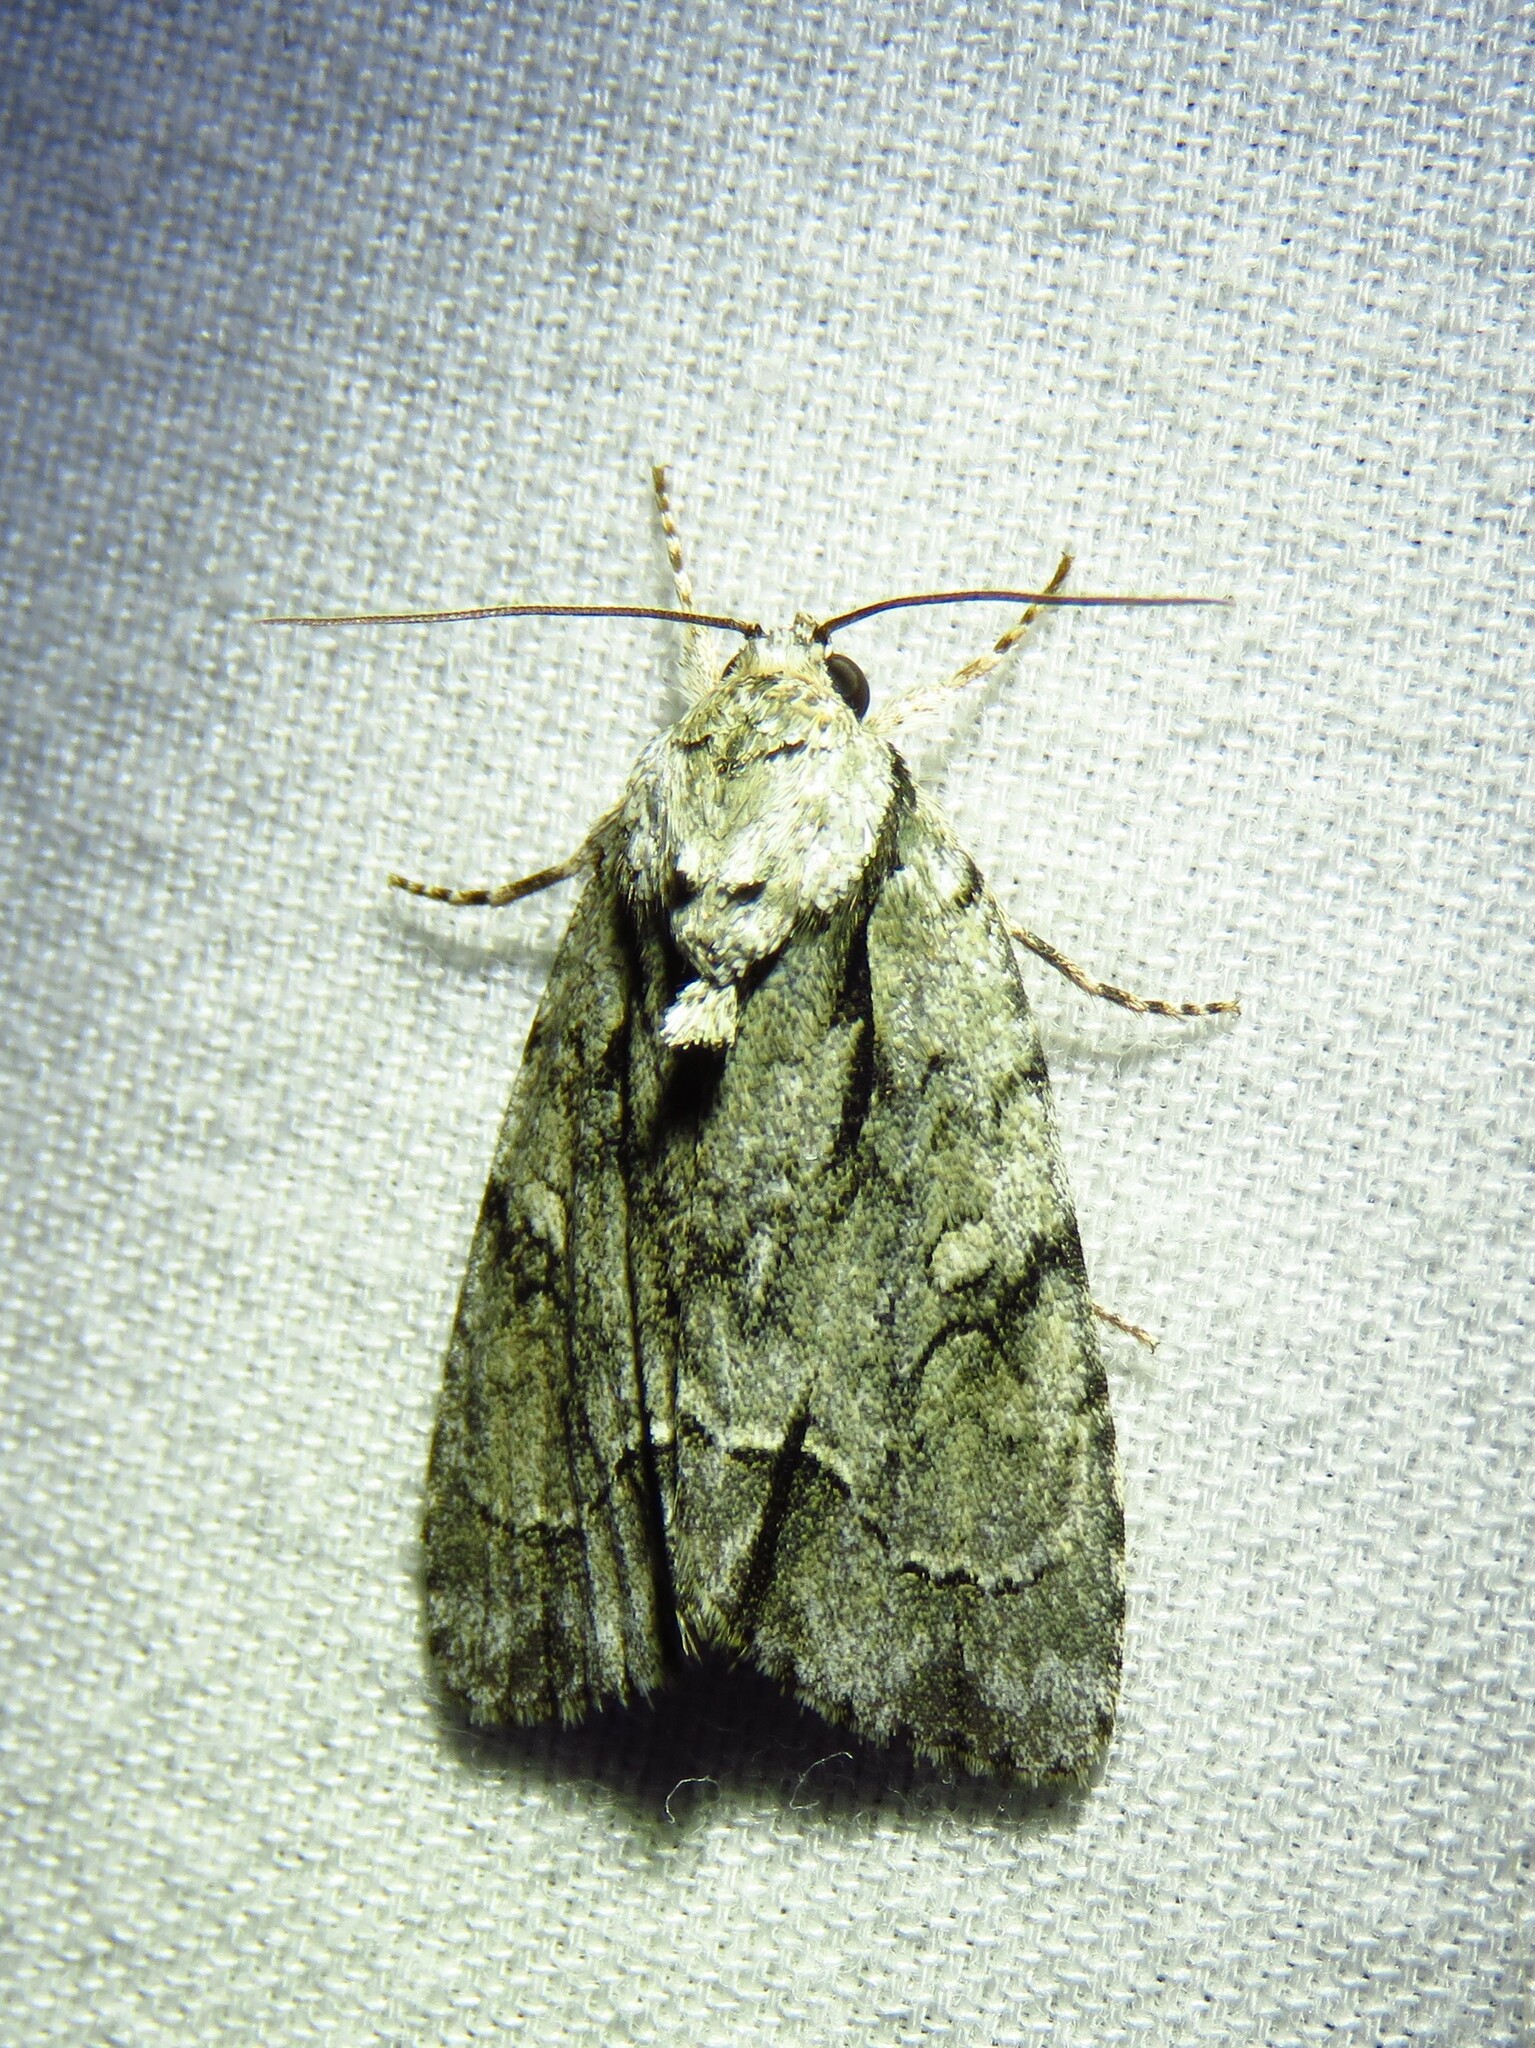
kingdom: Animalia
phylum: Arthropoda
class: Insecta
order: Lepidoptera
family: Noctuidae
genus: Acronicta
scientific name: Acronicta vinnula
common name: Delightful dagger
